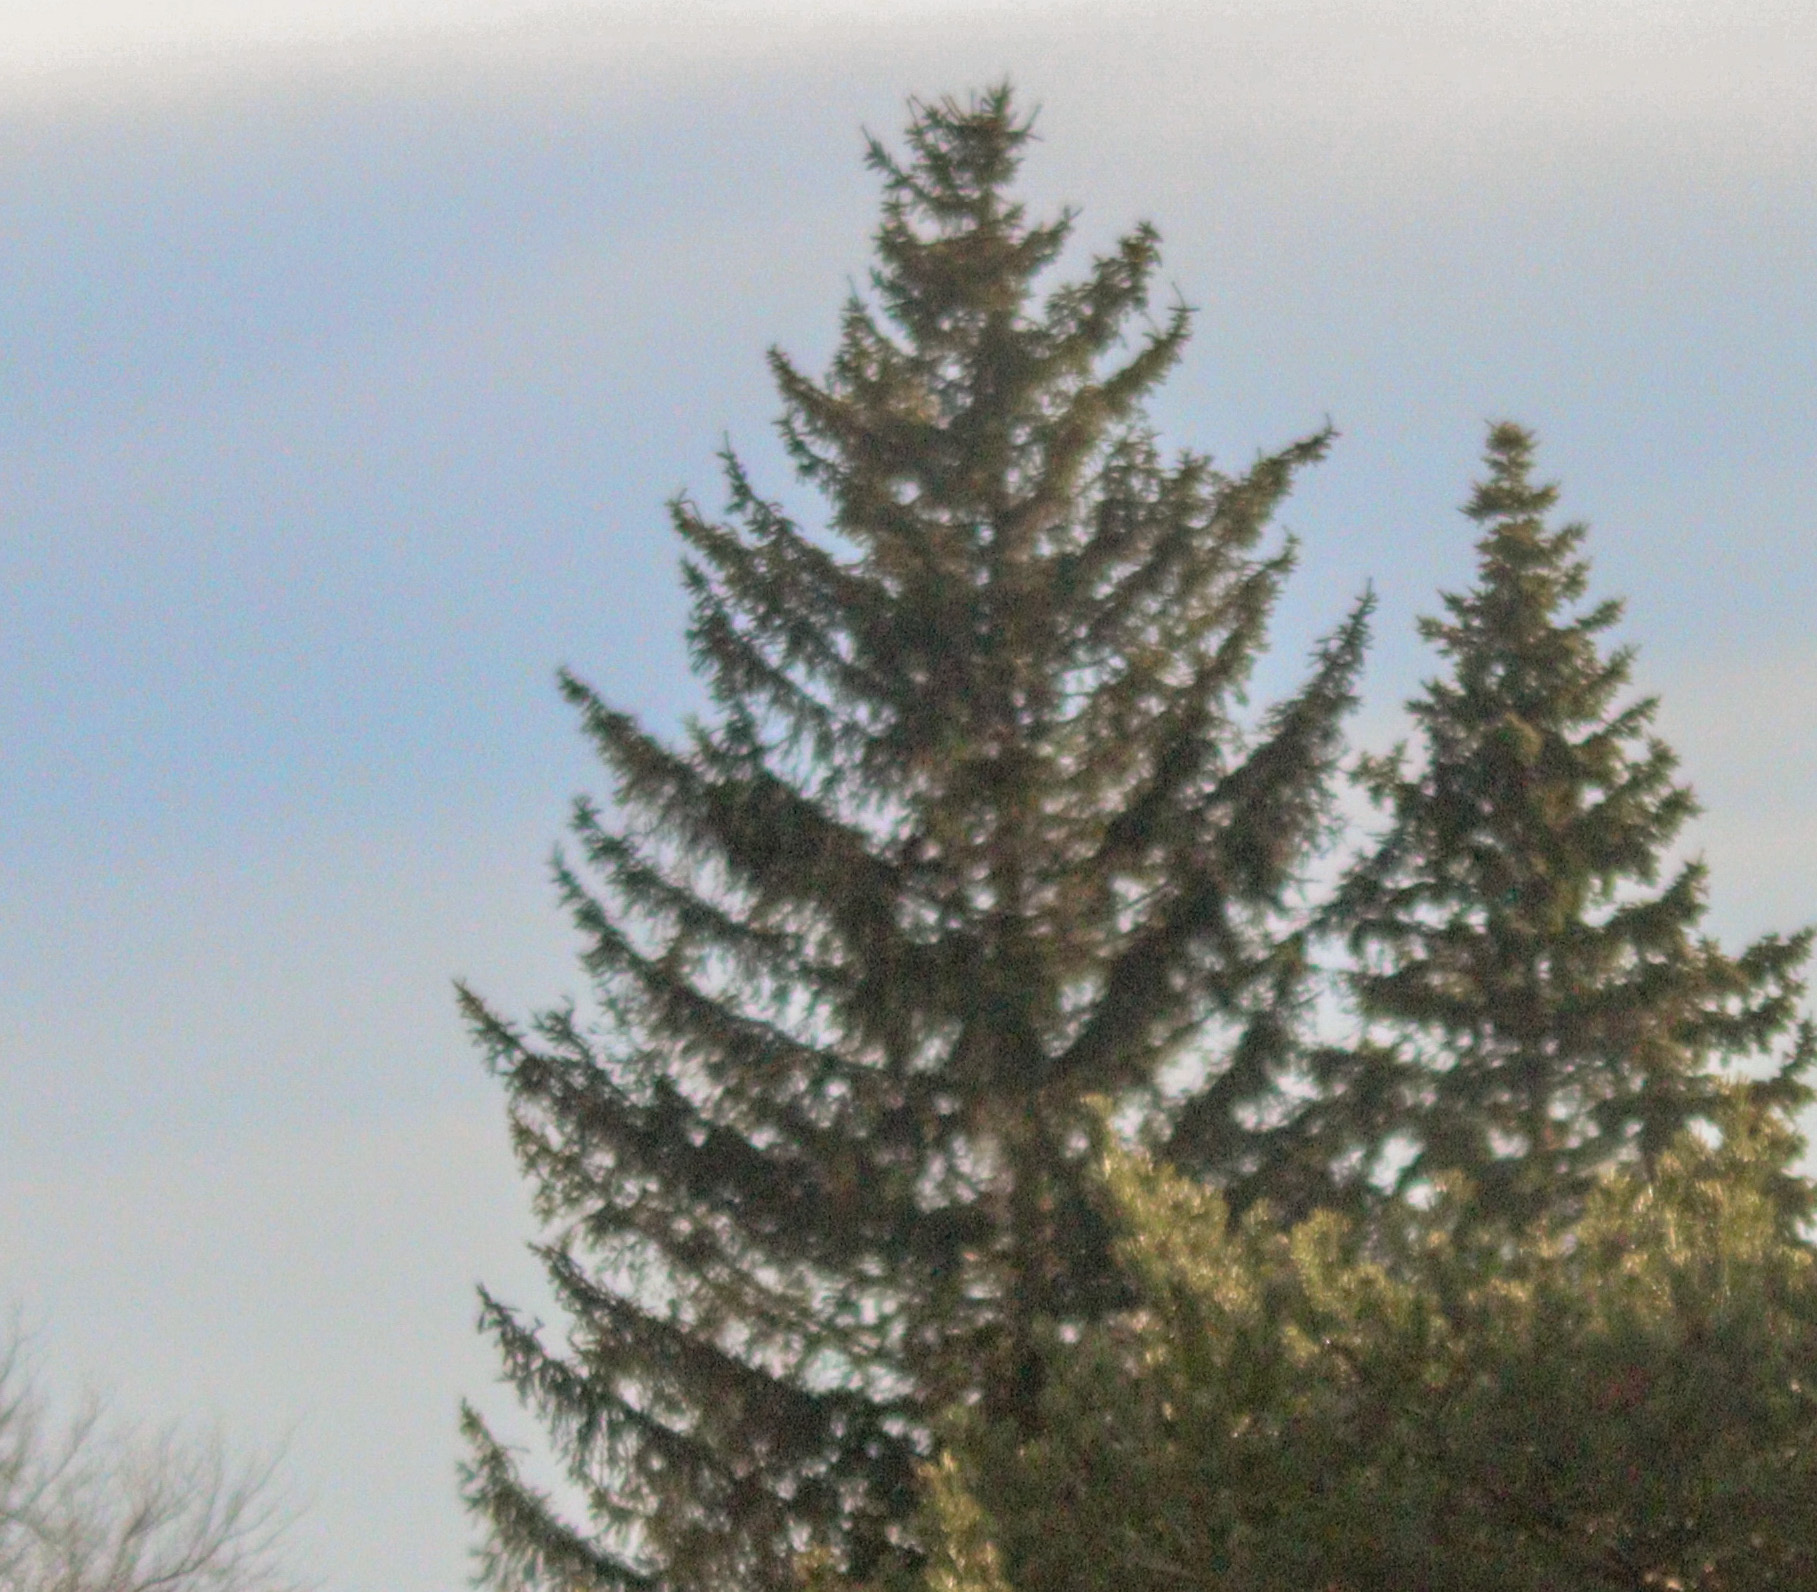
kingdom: Plantae
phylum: Tracheophyta
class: Pinopsida
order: Pinales
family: Pinaceae
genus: Picea
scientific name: Picea abies
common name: Norway spruce
